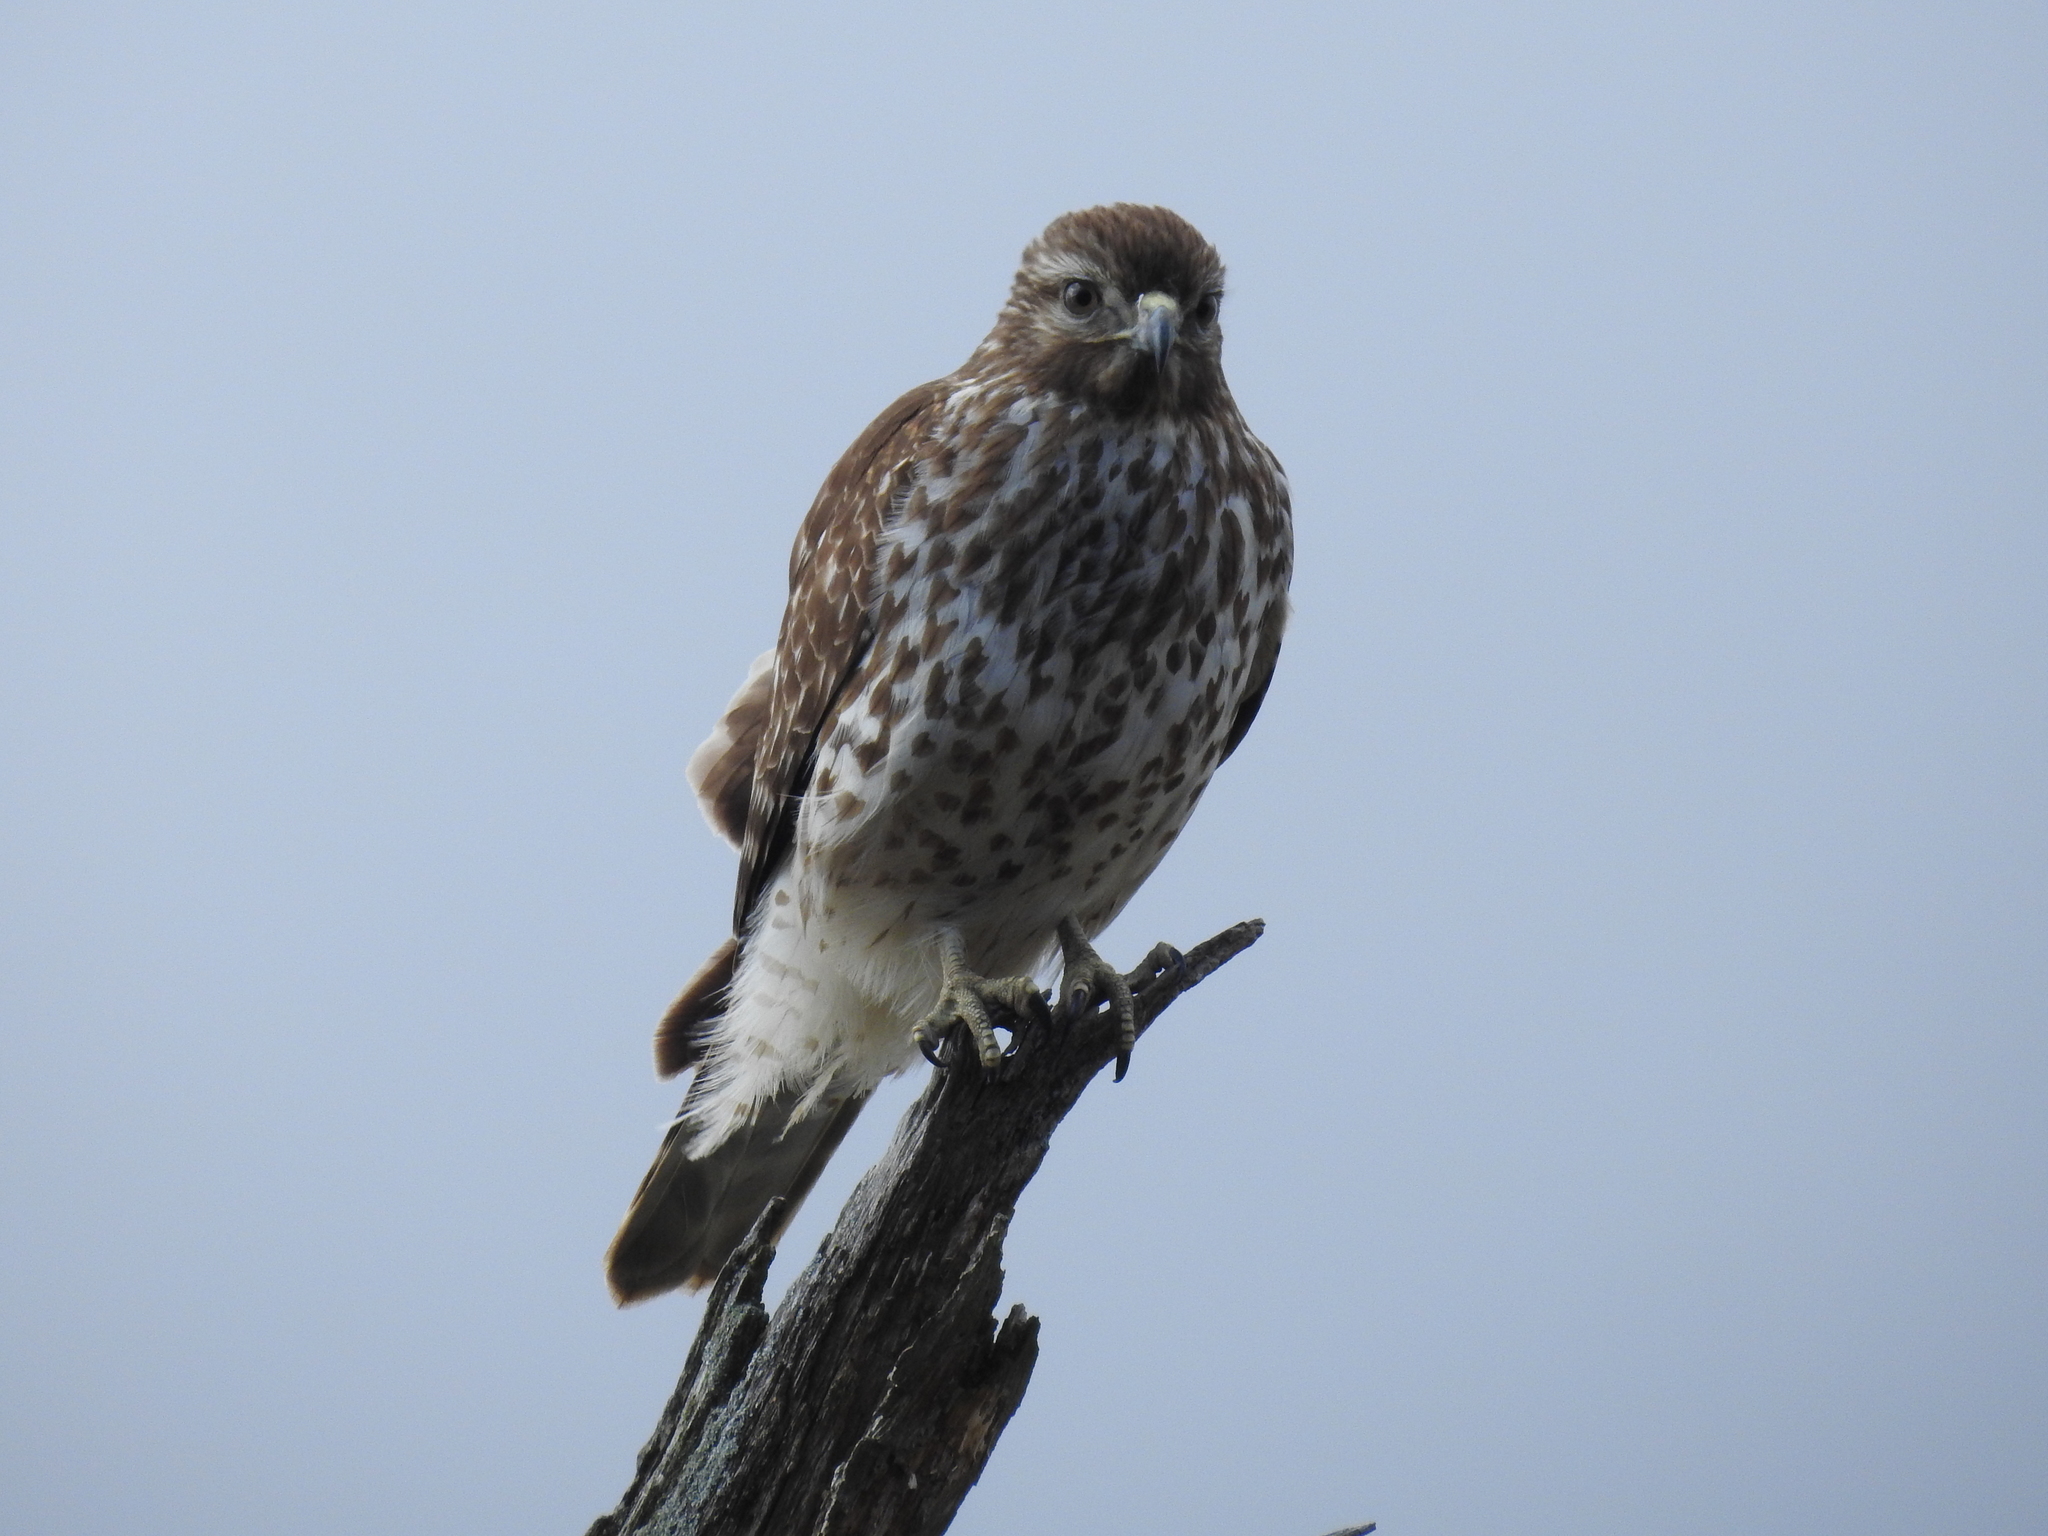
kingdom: Animalia
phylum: Chordata
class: Aves
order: Accipitriformes
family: Accipitridae
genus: Buteo
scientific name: Buteo lineatus
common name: Red-shouldered hawk
